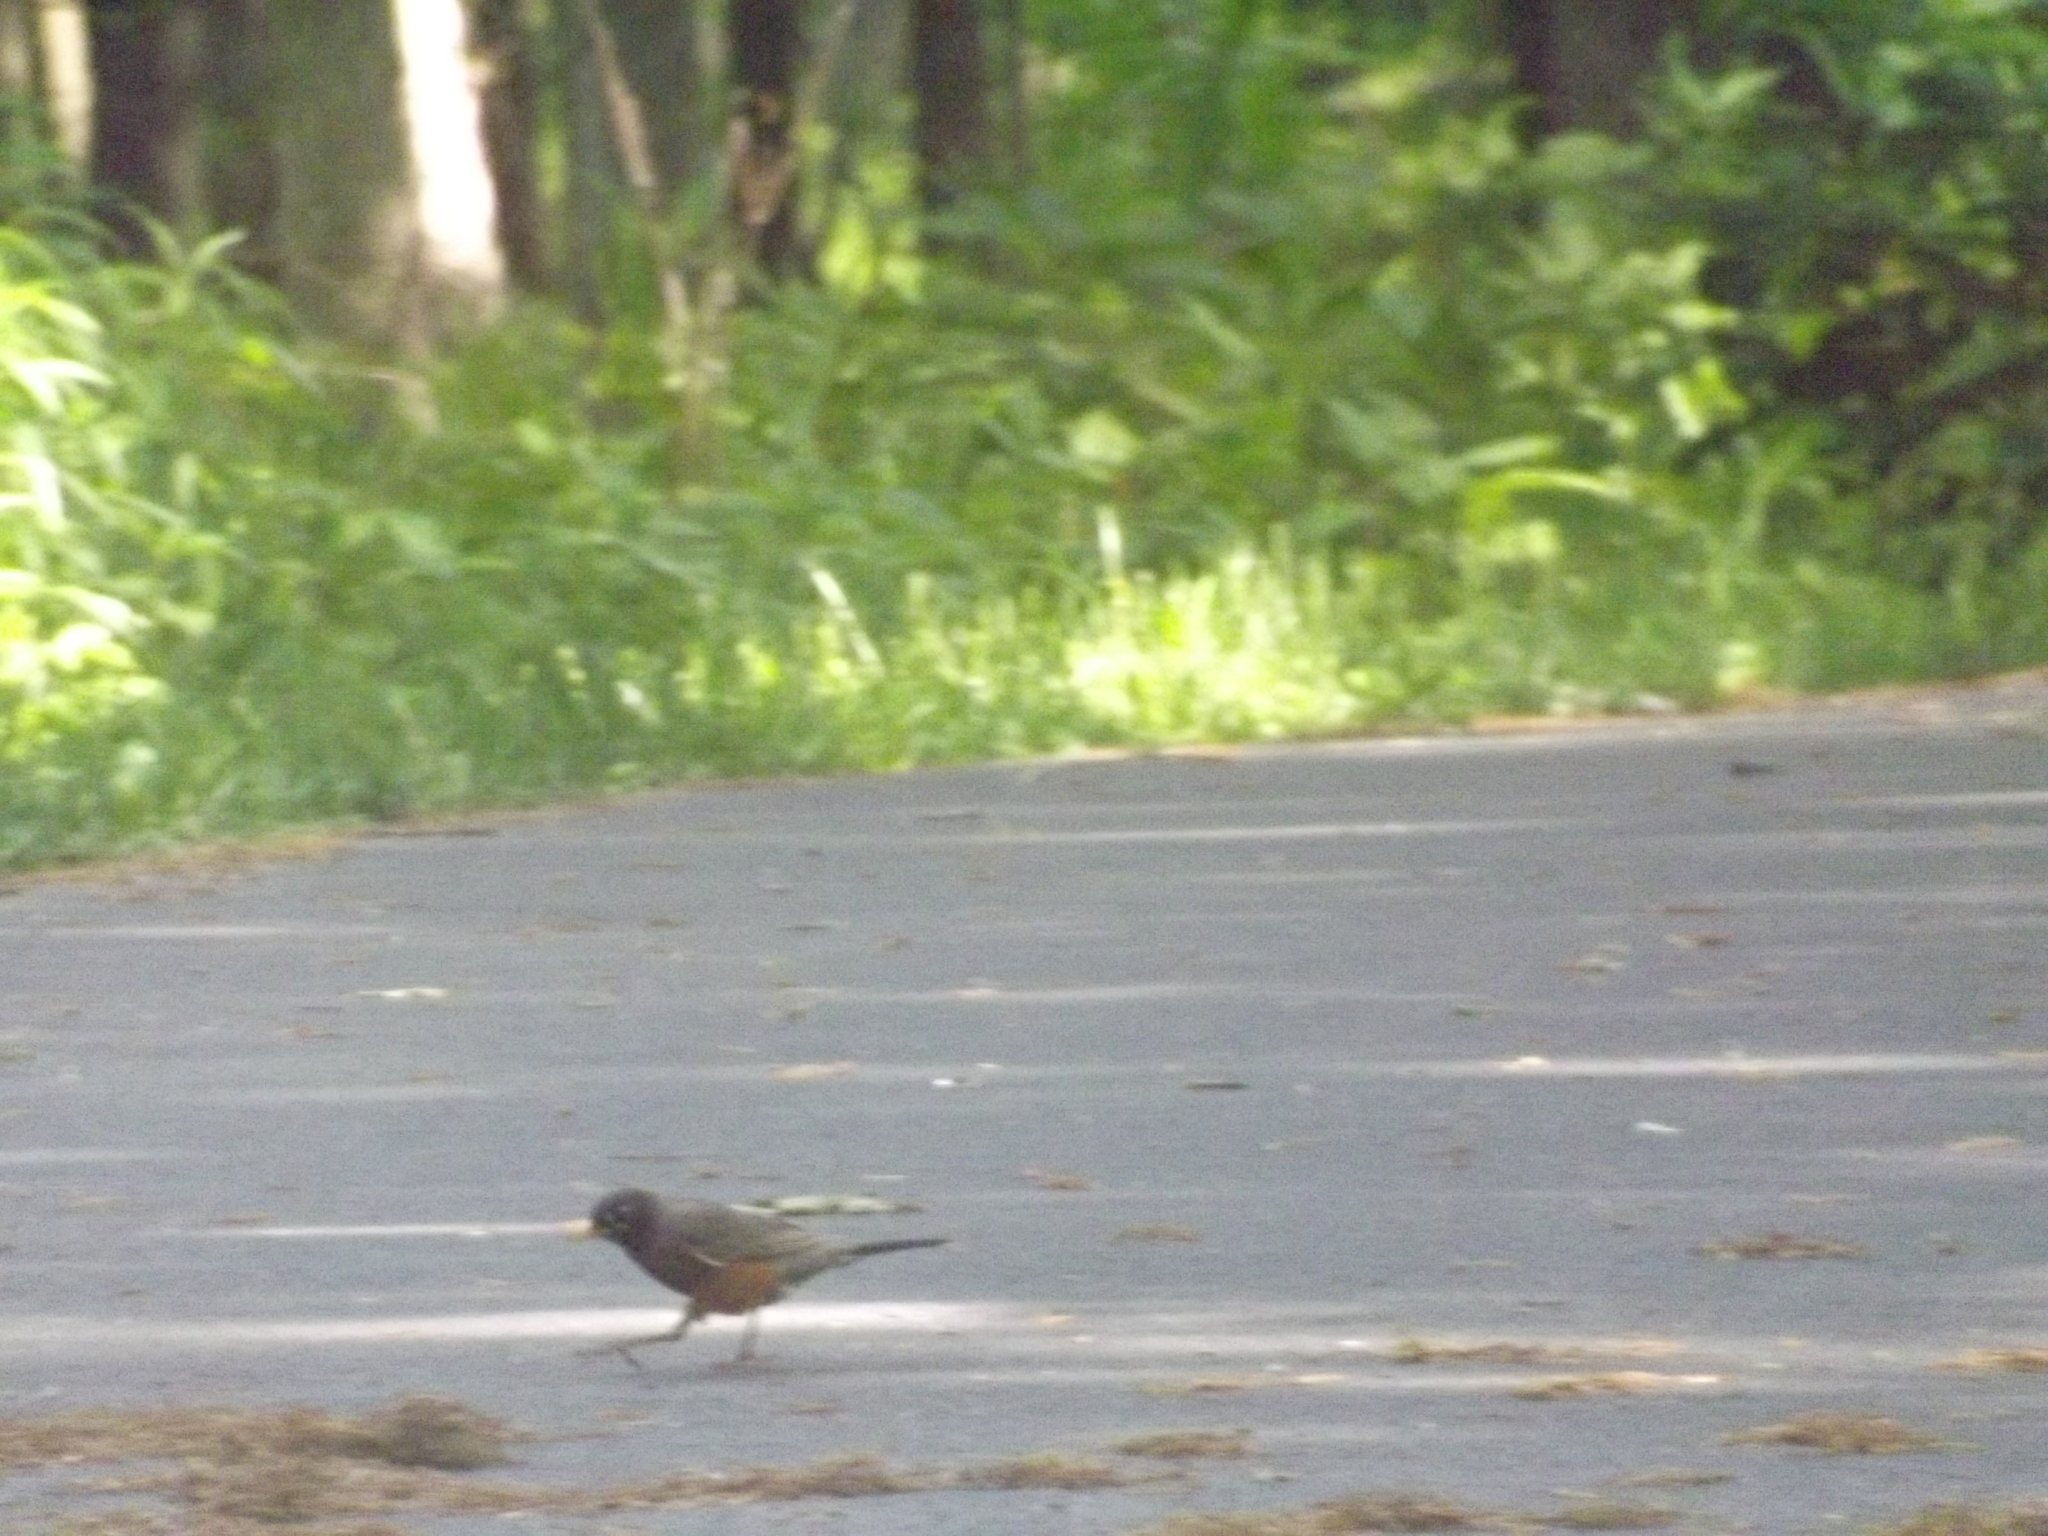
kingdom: Animalia
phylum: Chordata
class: Aves
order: Passeriformes
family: Turdidae
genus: Turdus
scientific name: Turdus migratorius
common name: American robin
